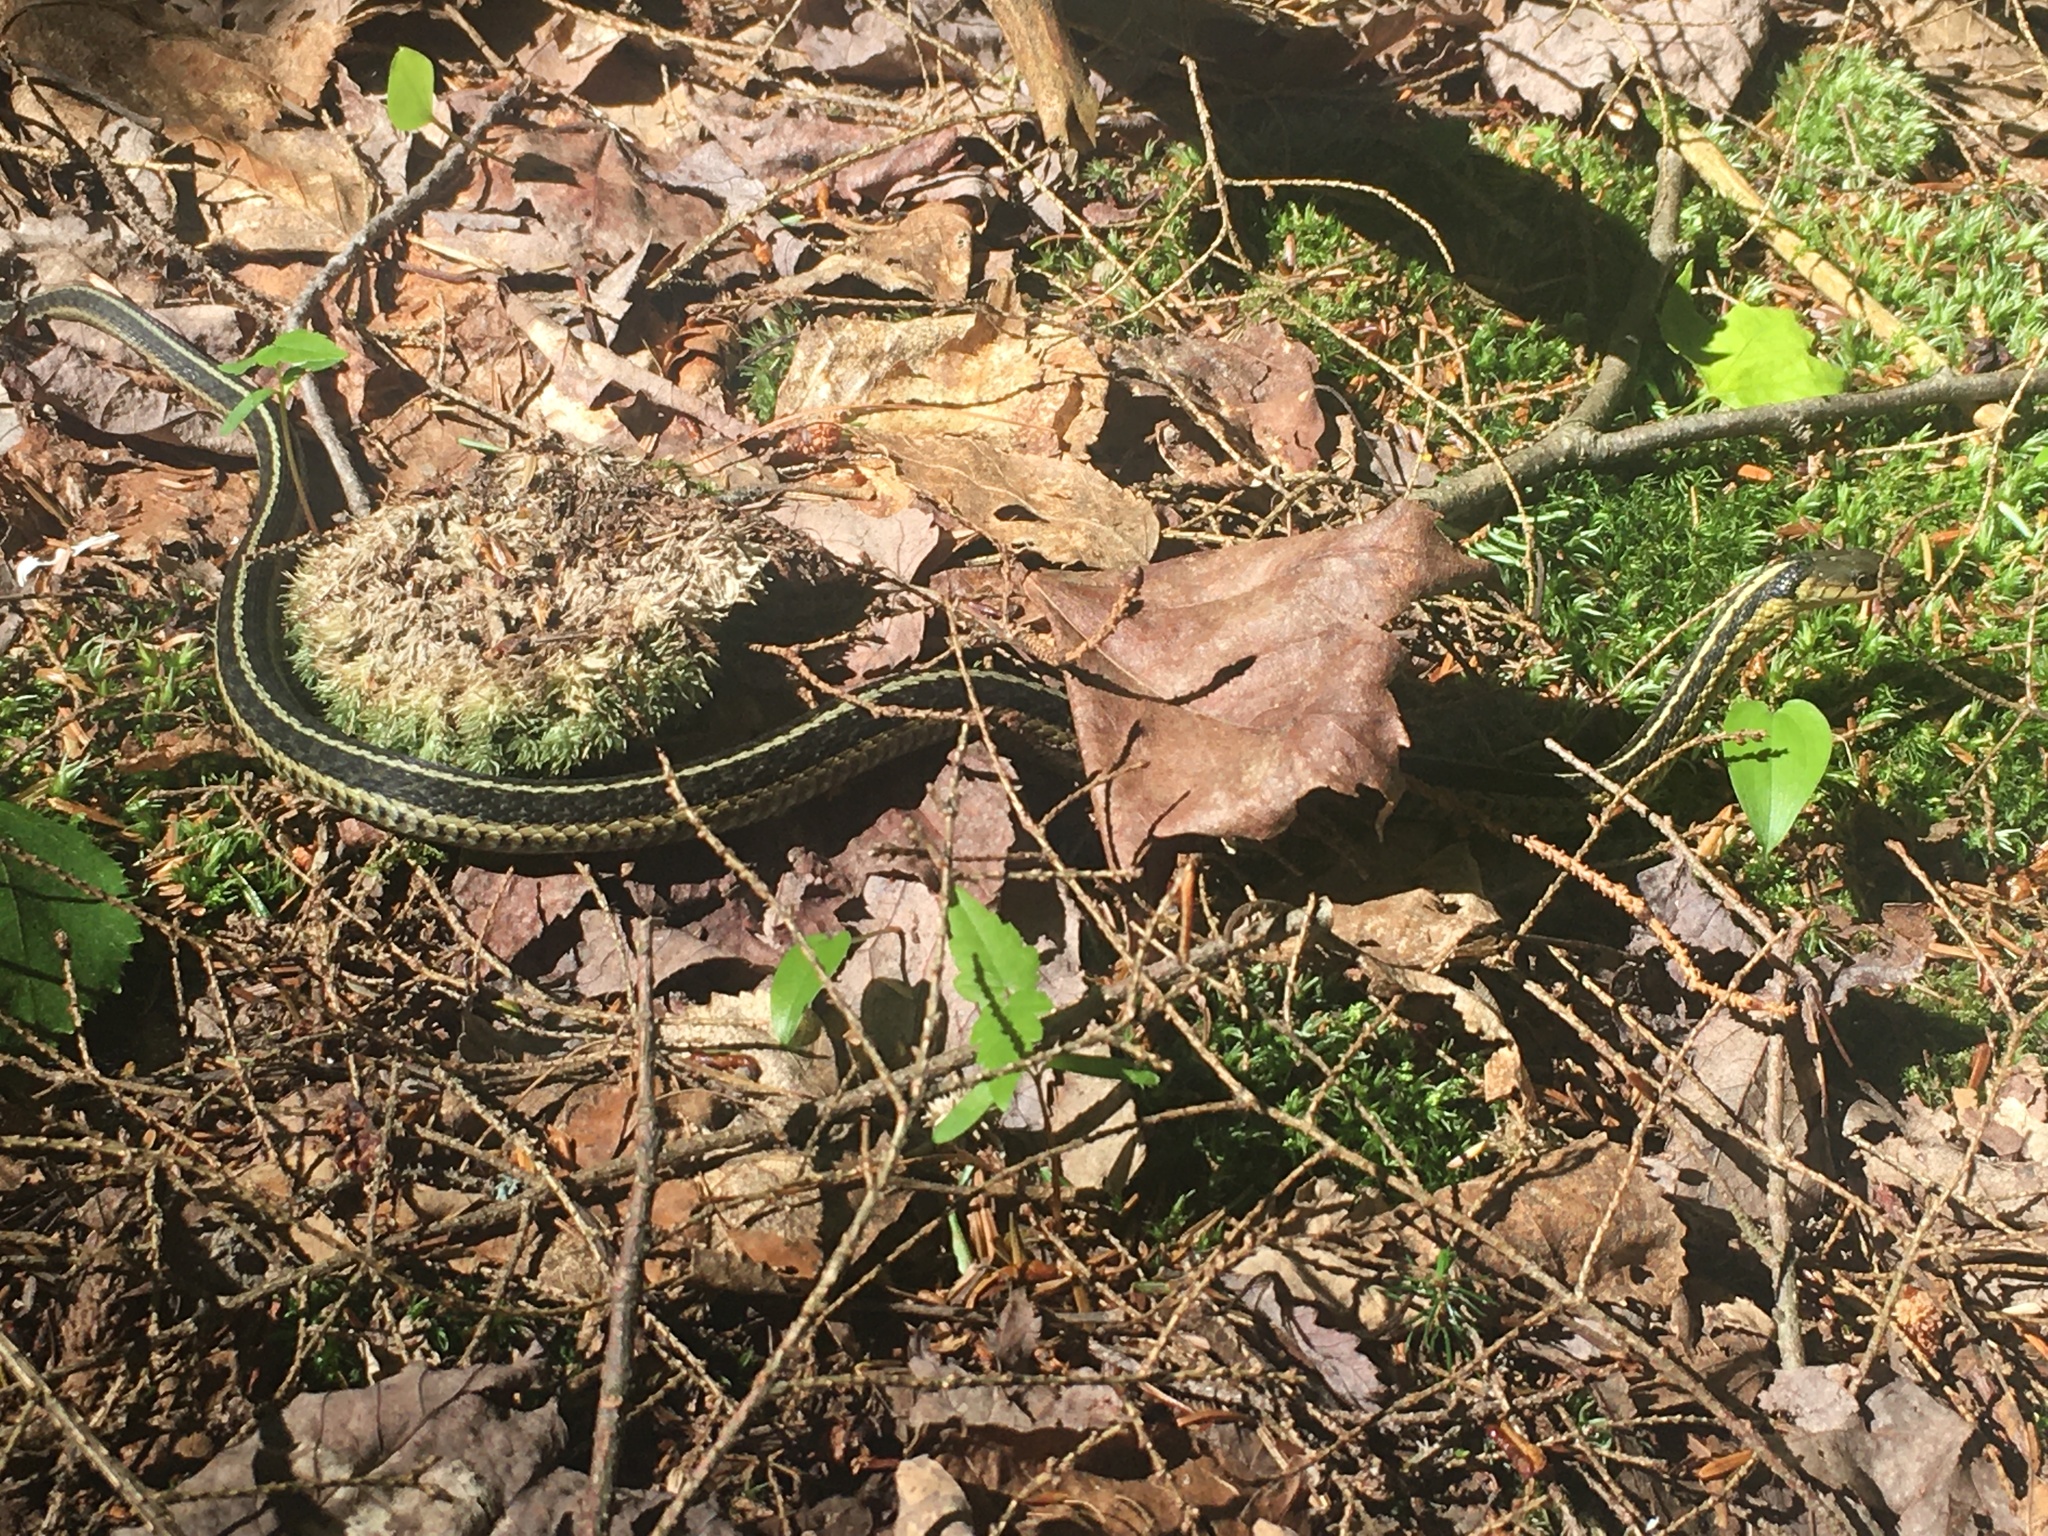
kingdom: Animalia
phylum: Chordata
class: Squamata
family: Colubridae
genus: Thamnophis
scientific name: Thamnophis sirtalis
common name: Common garter snake
